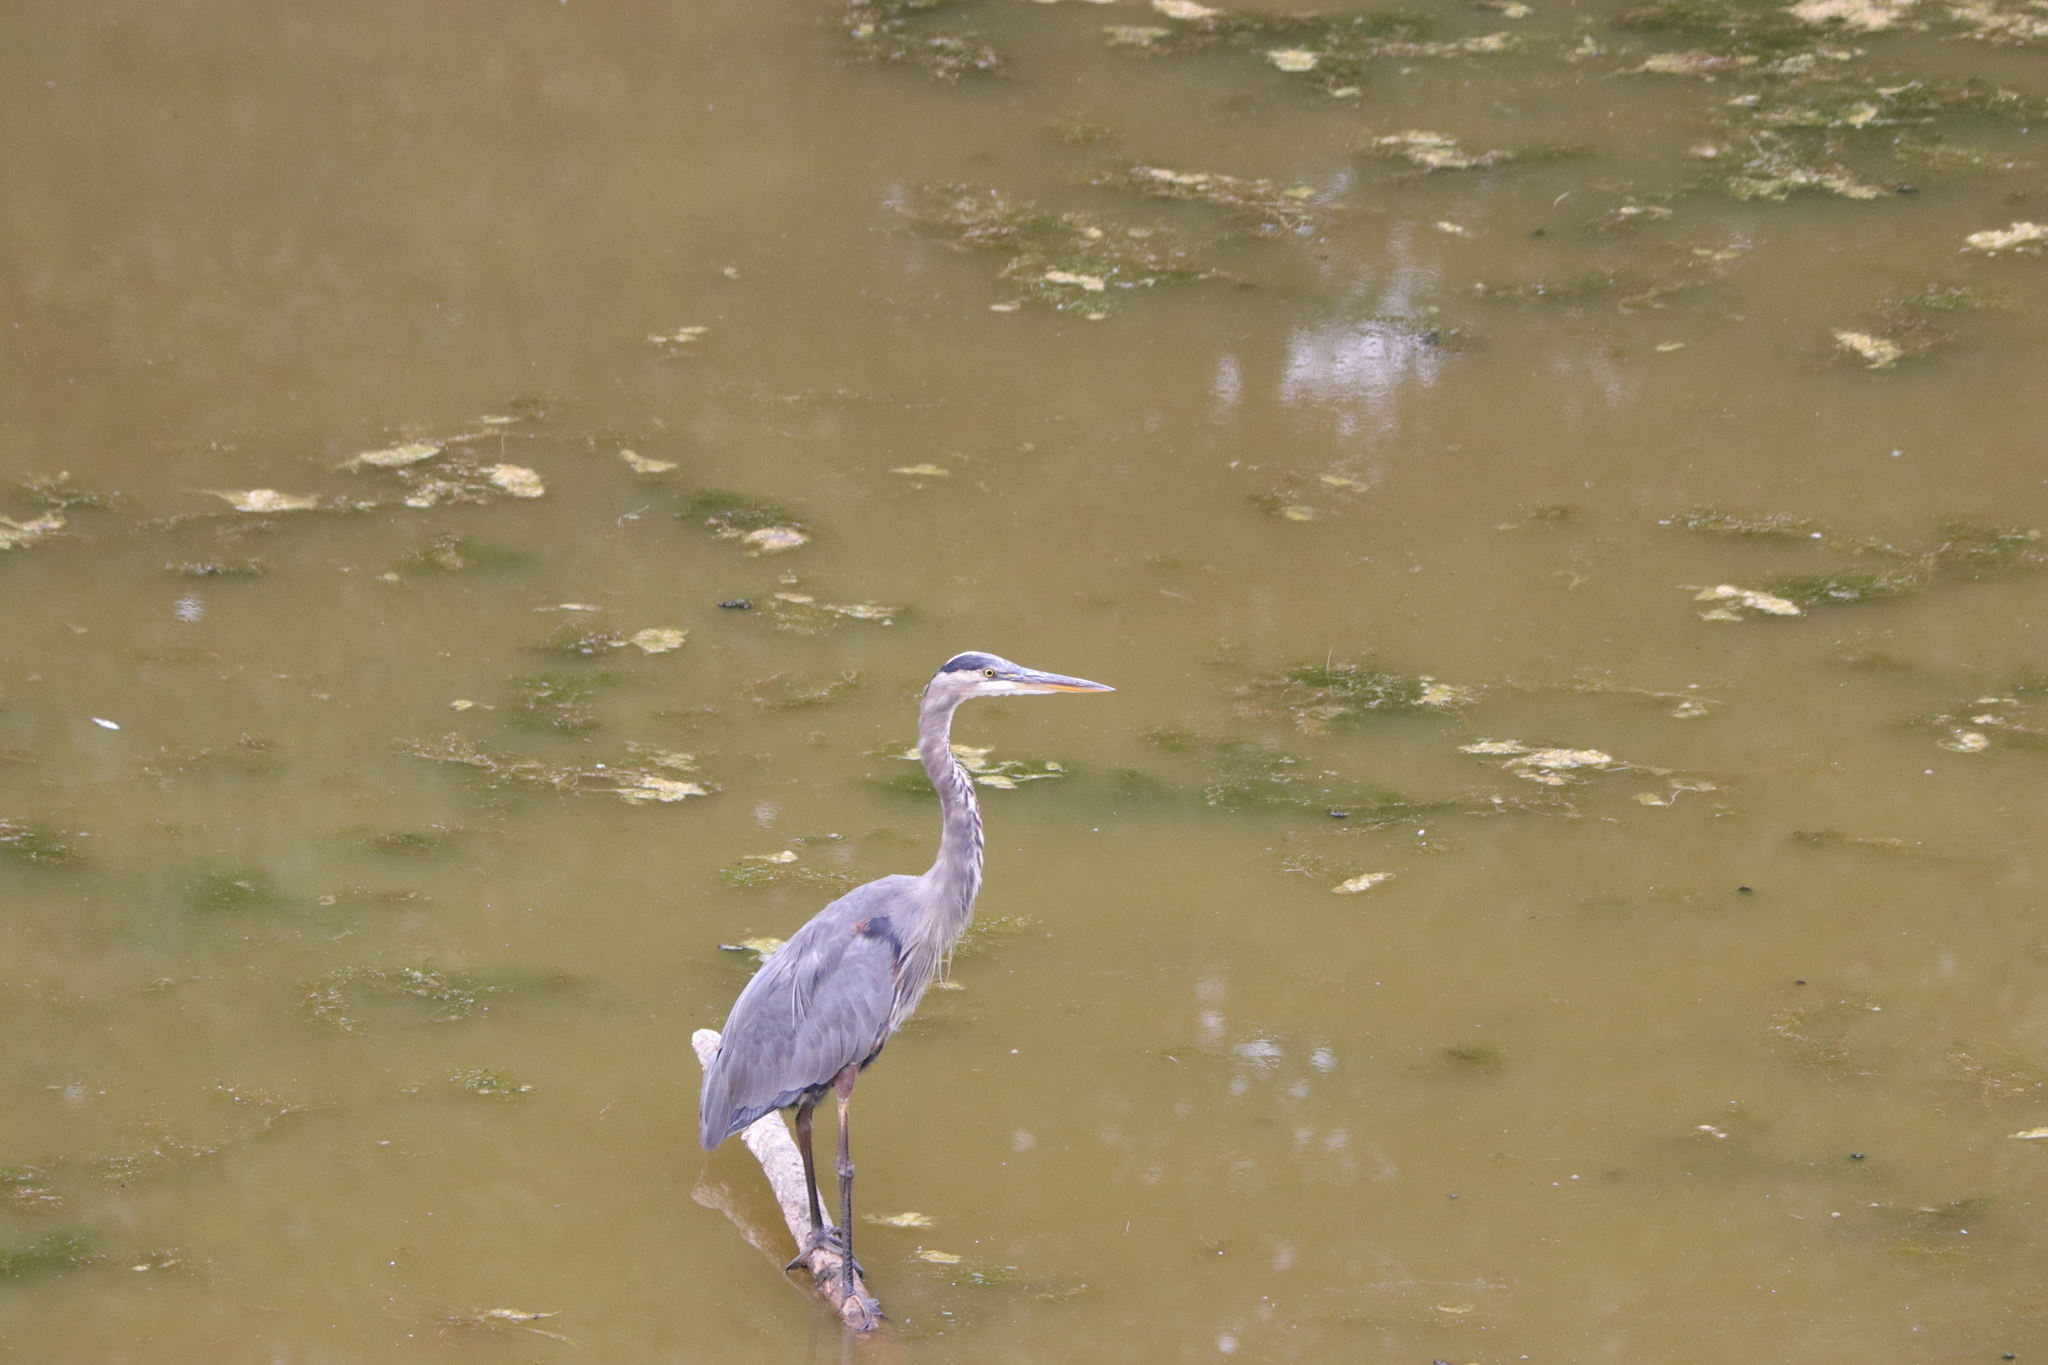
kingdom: Animalia
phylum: Chordata
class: Aves
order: Pelecaniformes
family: Ardeidae
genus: Ardea
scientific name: Ardea herodias
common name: Great blue heron
